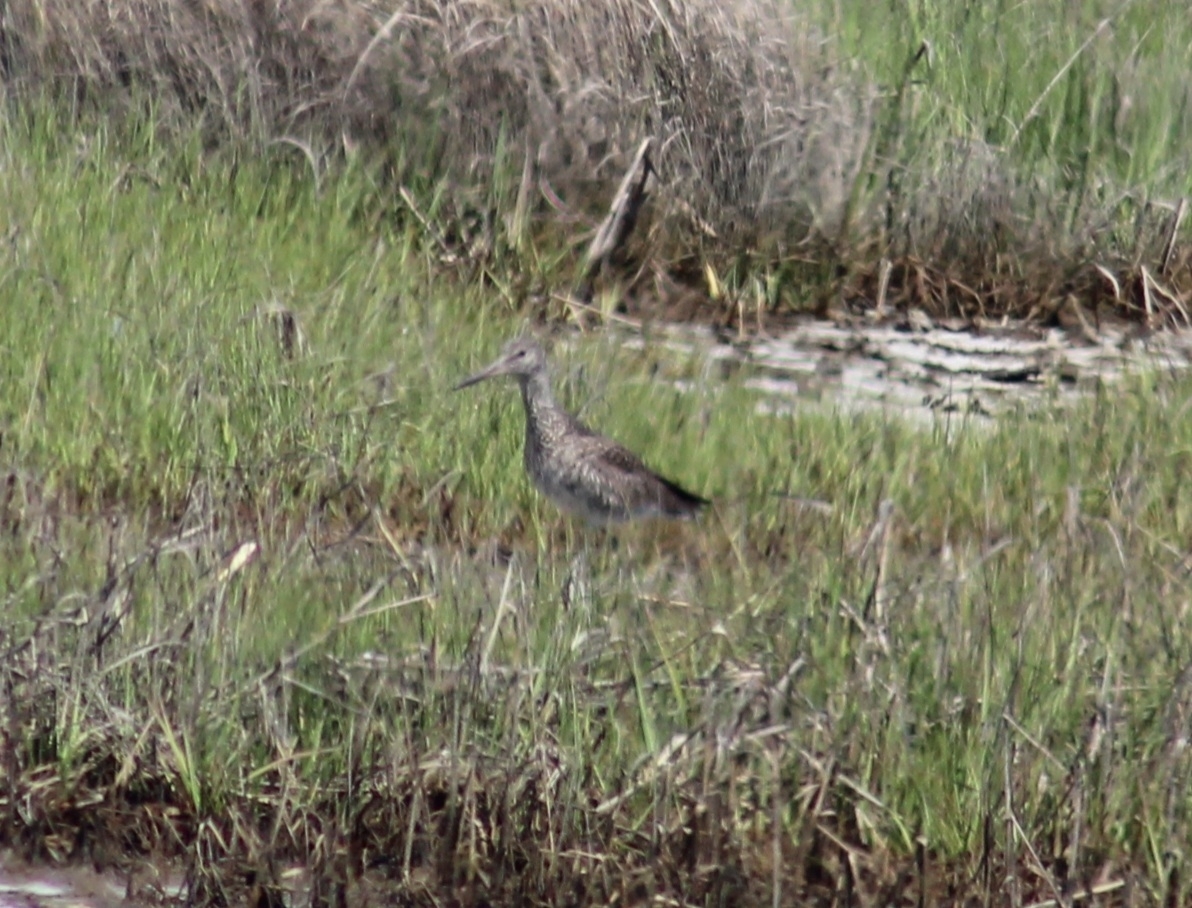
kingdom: Animalia
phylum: Chordata
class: Aves
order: Charadriiformes
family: Scolopacidae
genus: Tringa
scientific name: Tringa semipalmata
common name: Willet
